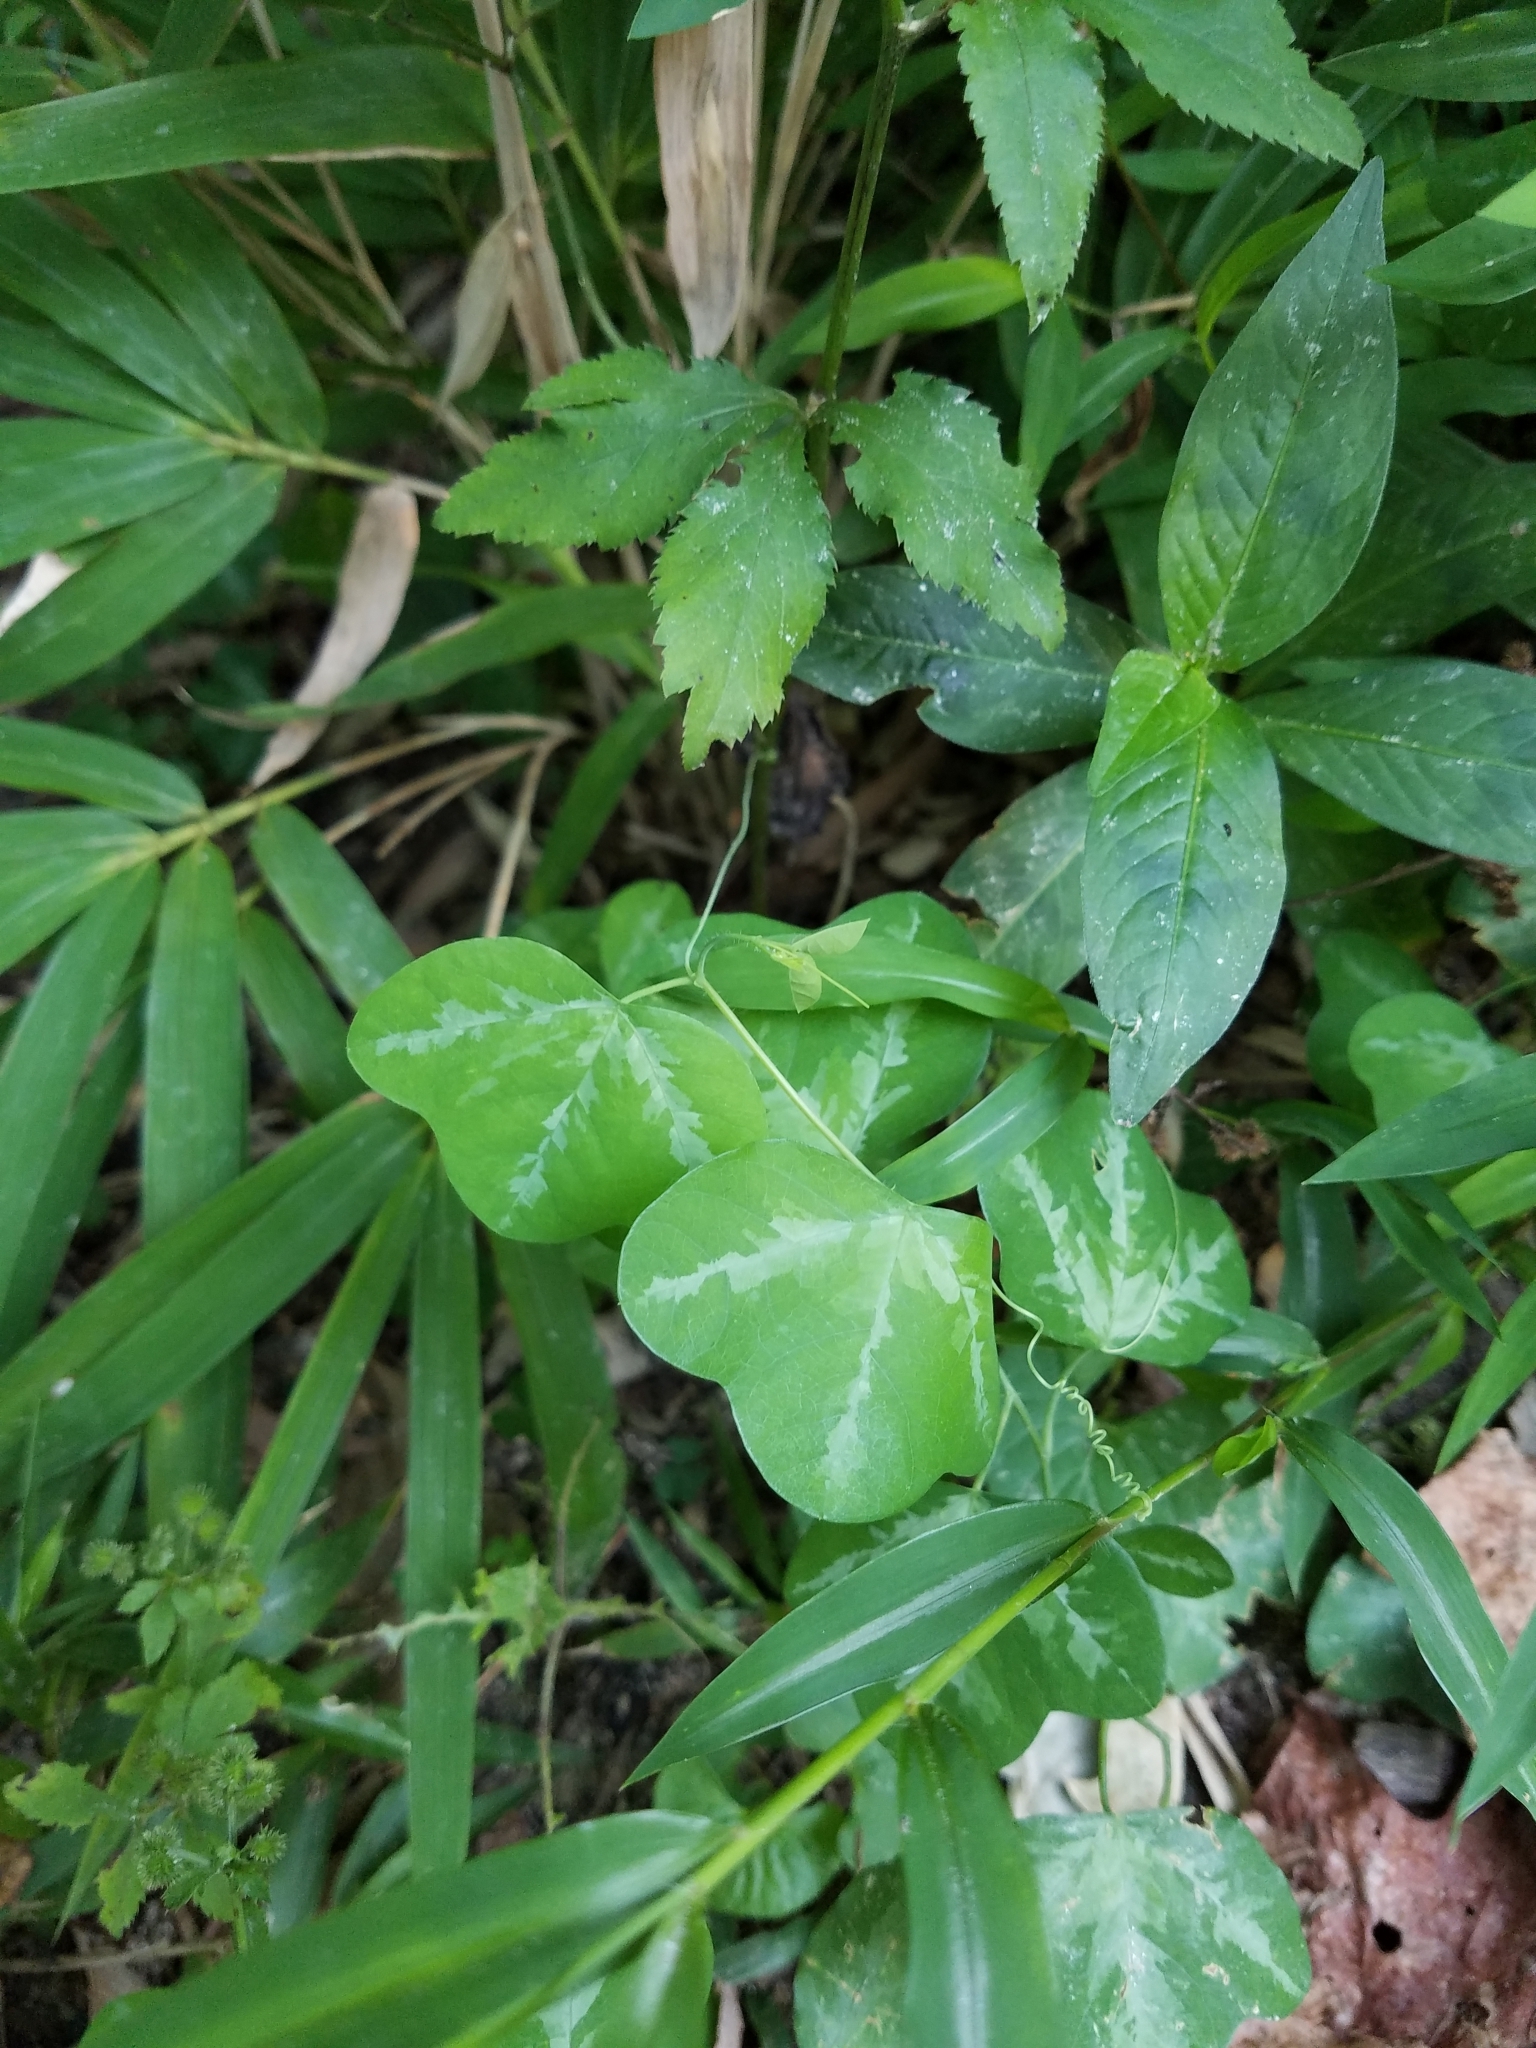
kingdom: Plantae
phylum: Tracheophyta
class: Magnoliopsida
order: Malpighiales
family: Passifloraceae
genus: Passiflora
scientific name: Passiflora lutea
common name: Yellow passionflower
